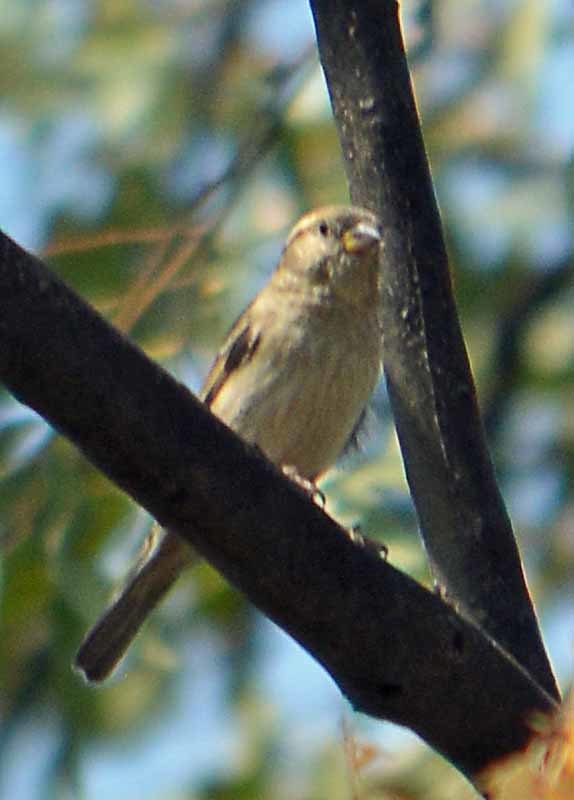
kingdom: Animalia
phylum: Chordata
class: Aves
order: Passeriformes
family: Passeridae
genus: Passer
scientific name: Passer domesticus
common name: House sparrow
